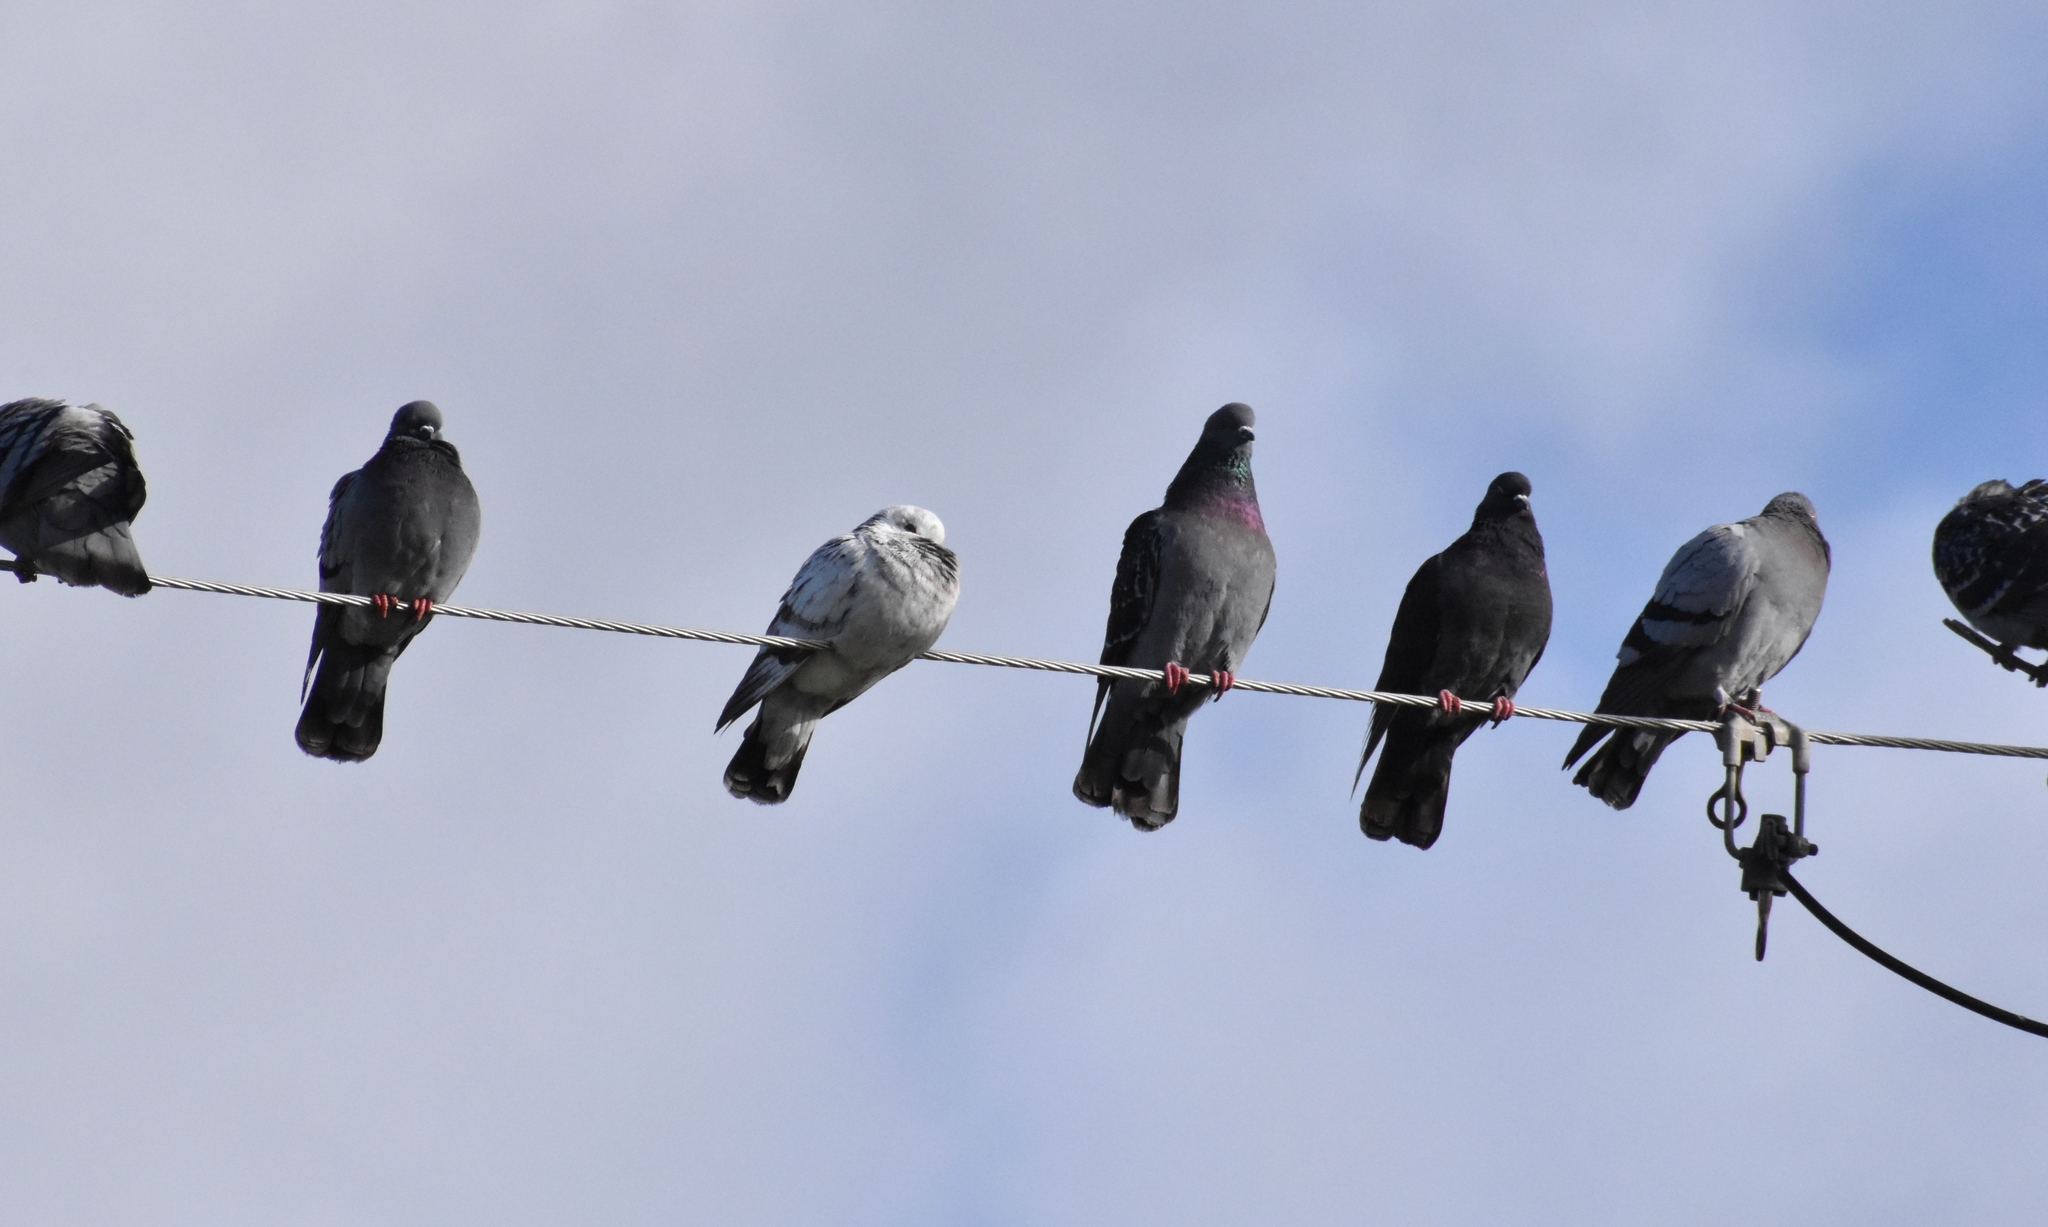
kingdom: Animalia
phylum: Chordata
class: Aves
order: Columbiformes
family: Columbidae
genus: Columba
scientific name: Columba livia
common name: Rock pigeon
